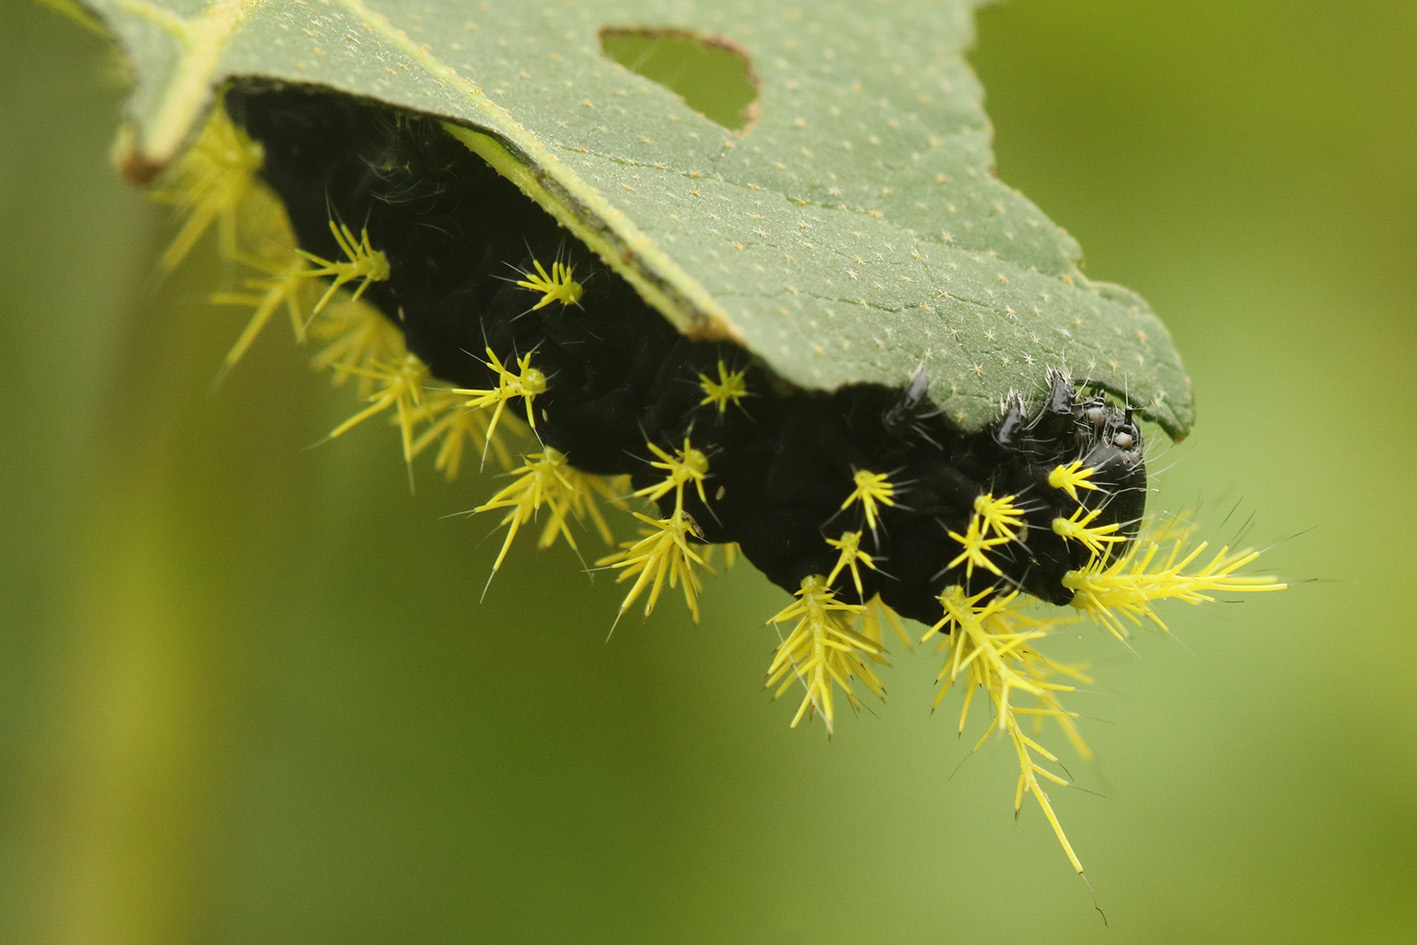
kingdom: Animalia
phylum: Arthropoda
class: Insecta
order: Lepidoptera
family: Saturniidae
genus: Leucanella
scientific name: Leucanella viridescens
